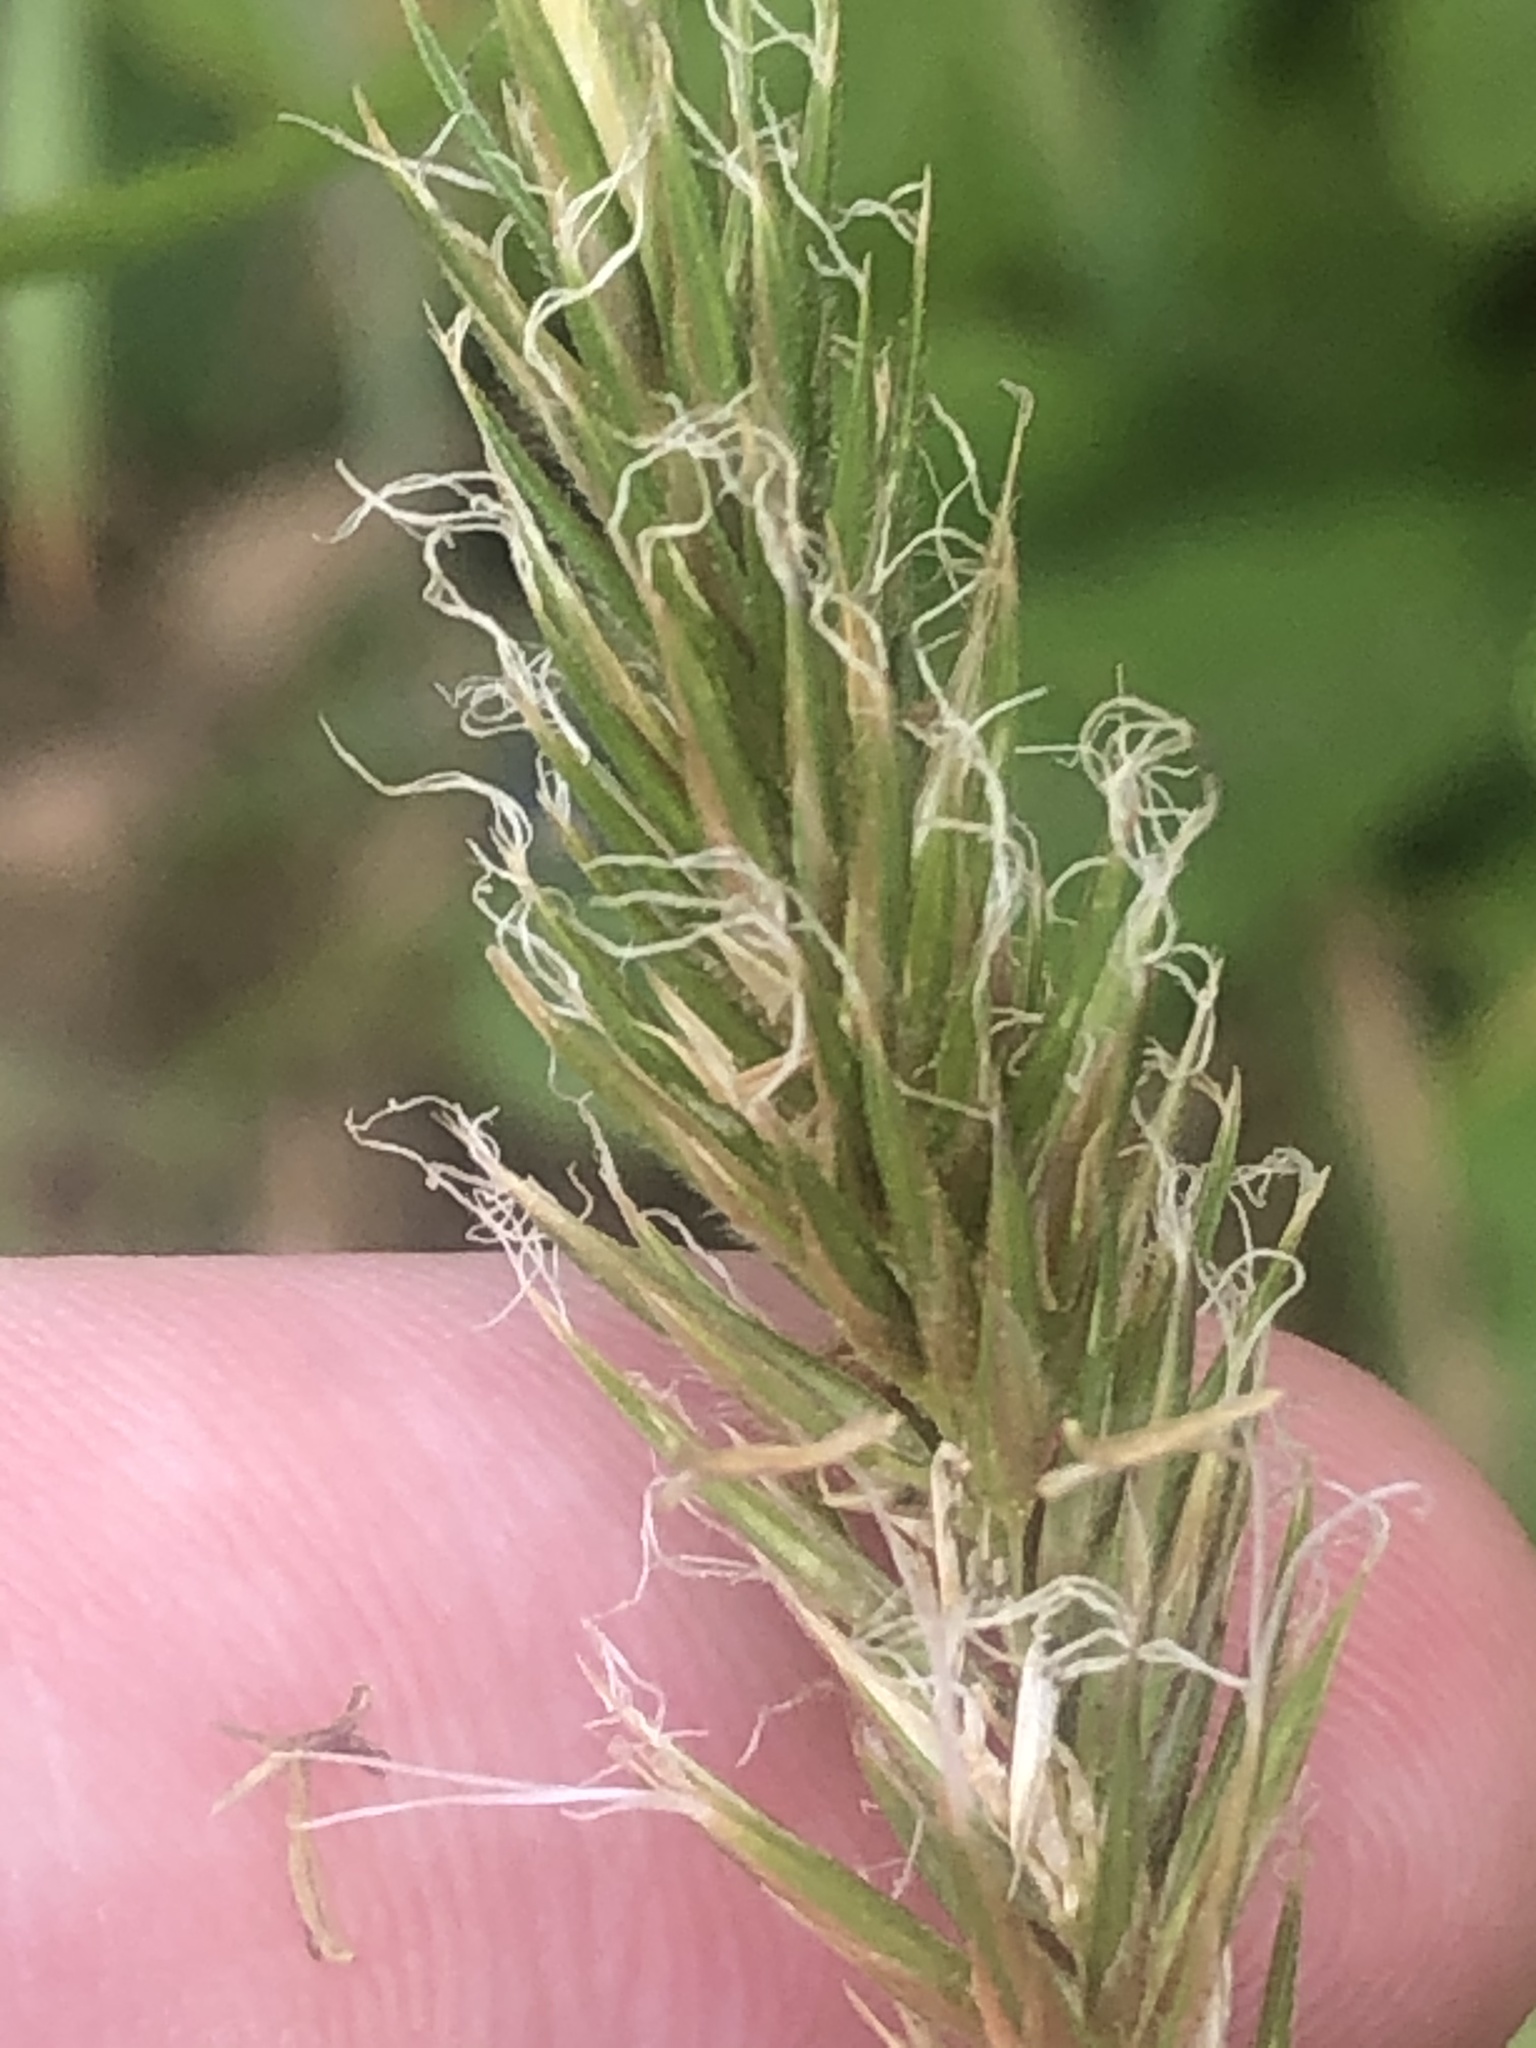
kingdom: Plantae
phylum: Tracheophyta
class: Liliopsida
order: Poales
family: Poaceae
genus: Anthoxanthum
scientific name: Anthoxanthum odoratum
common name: Sweet vernalgrass
